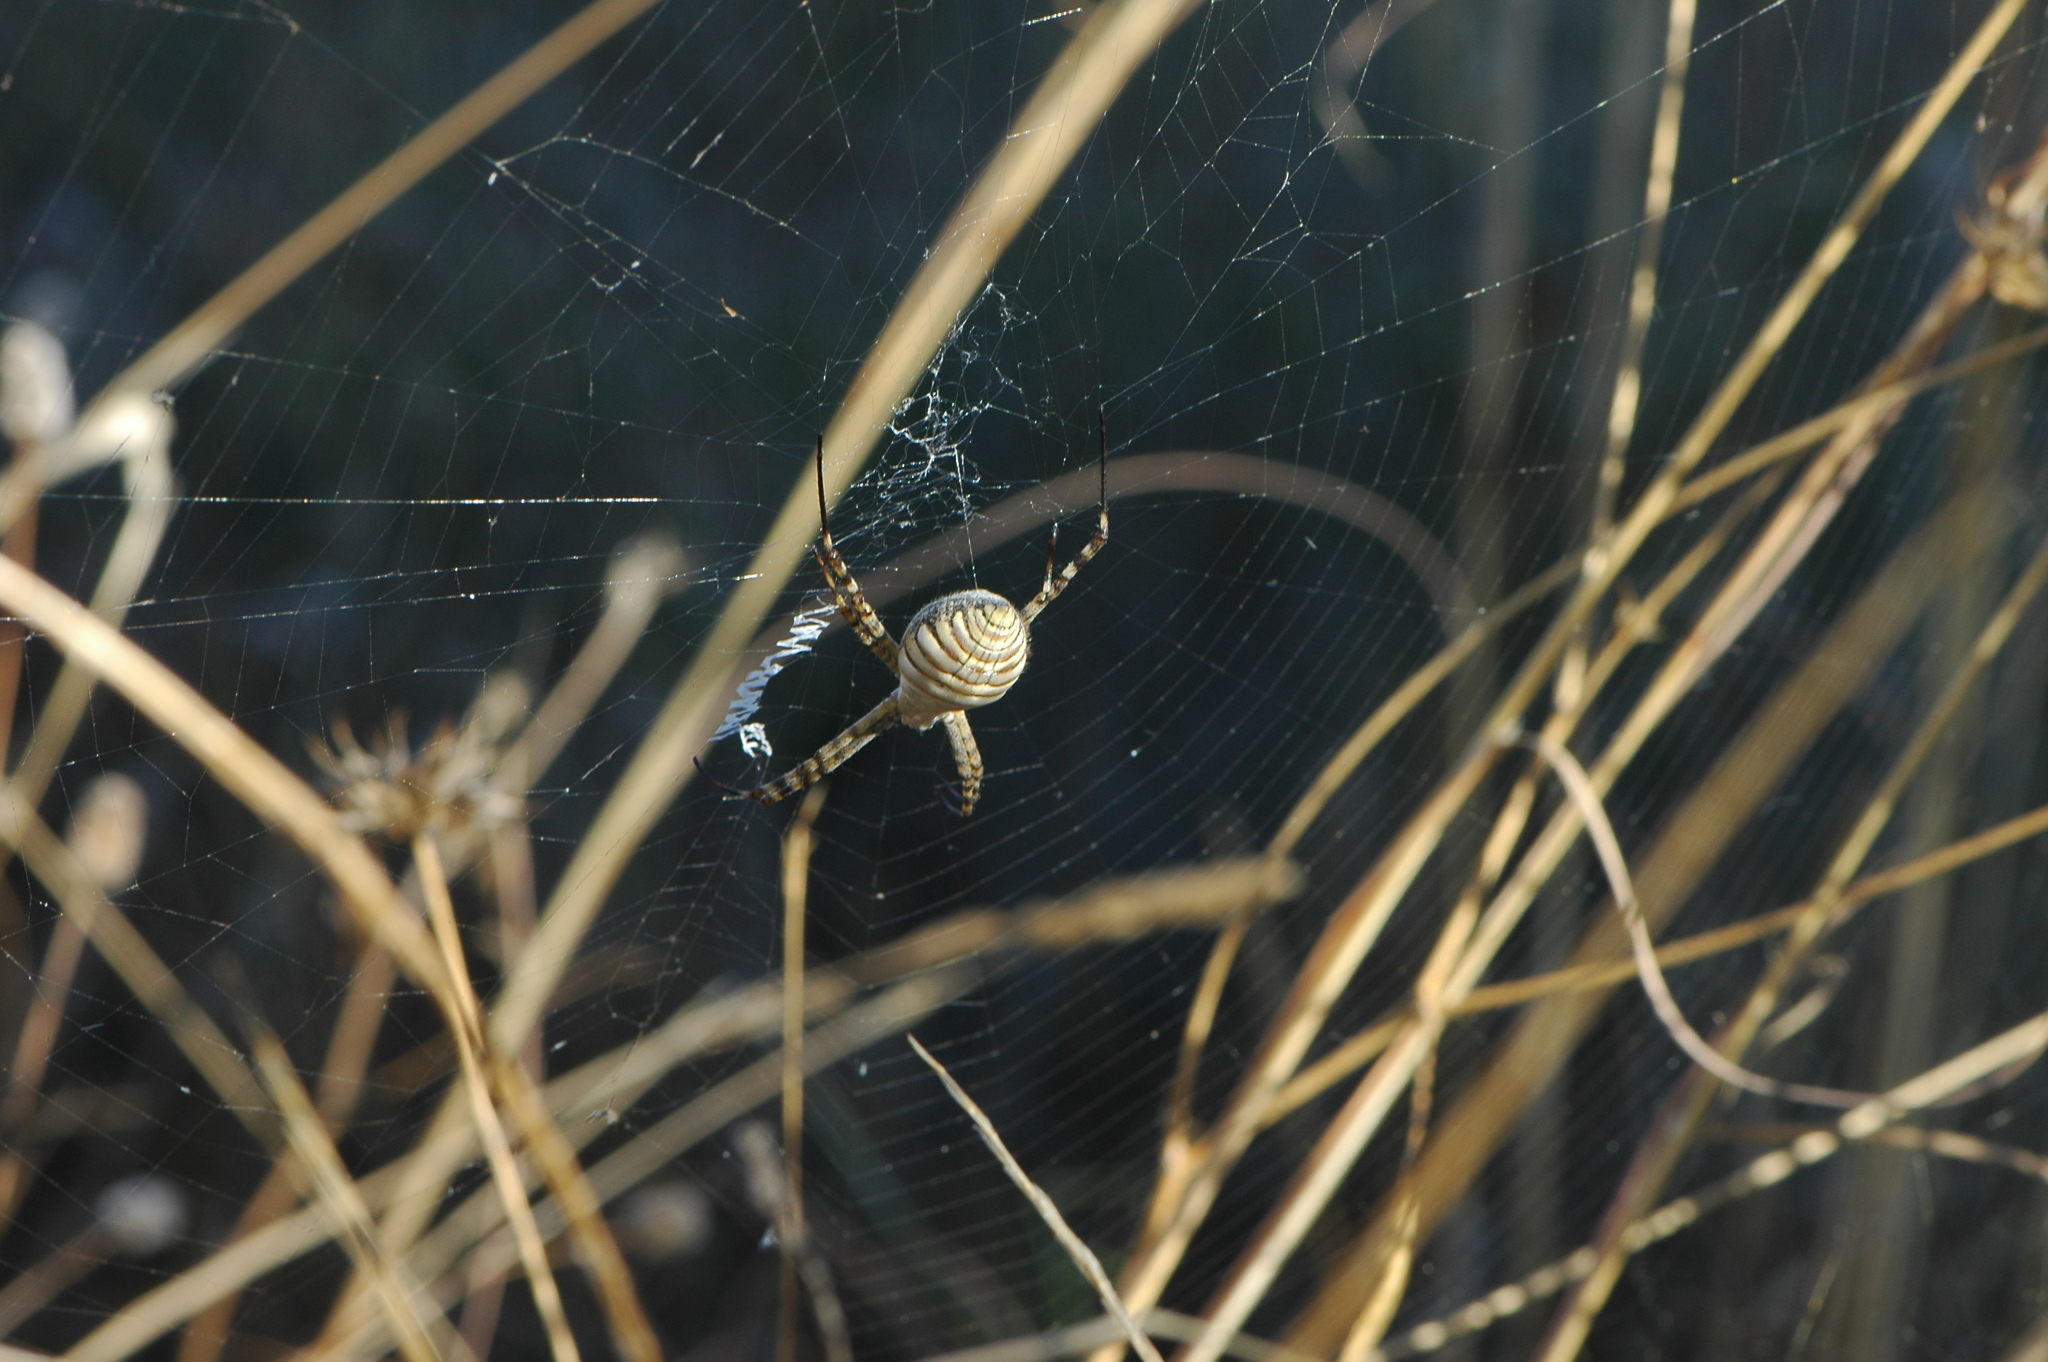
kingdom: Animalia
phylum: Arthropoda
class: Arachnida
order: Araneae
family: Araneidae
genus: Argiope
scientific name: Argiope trifasciata
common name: Banded garden spider
